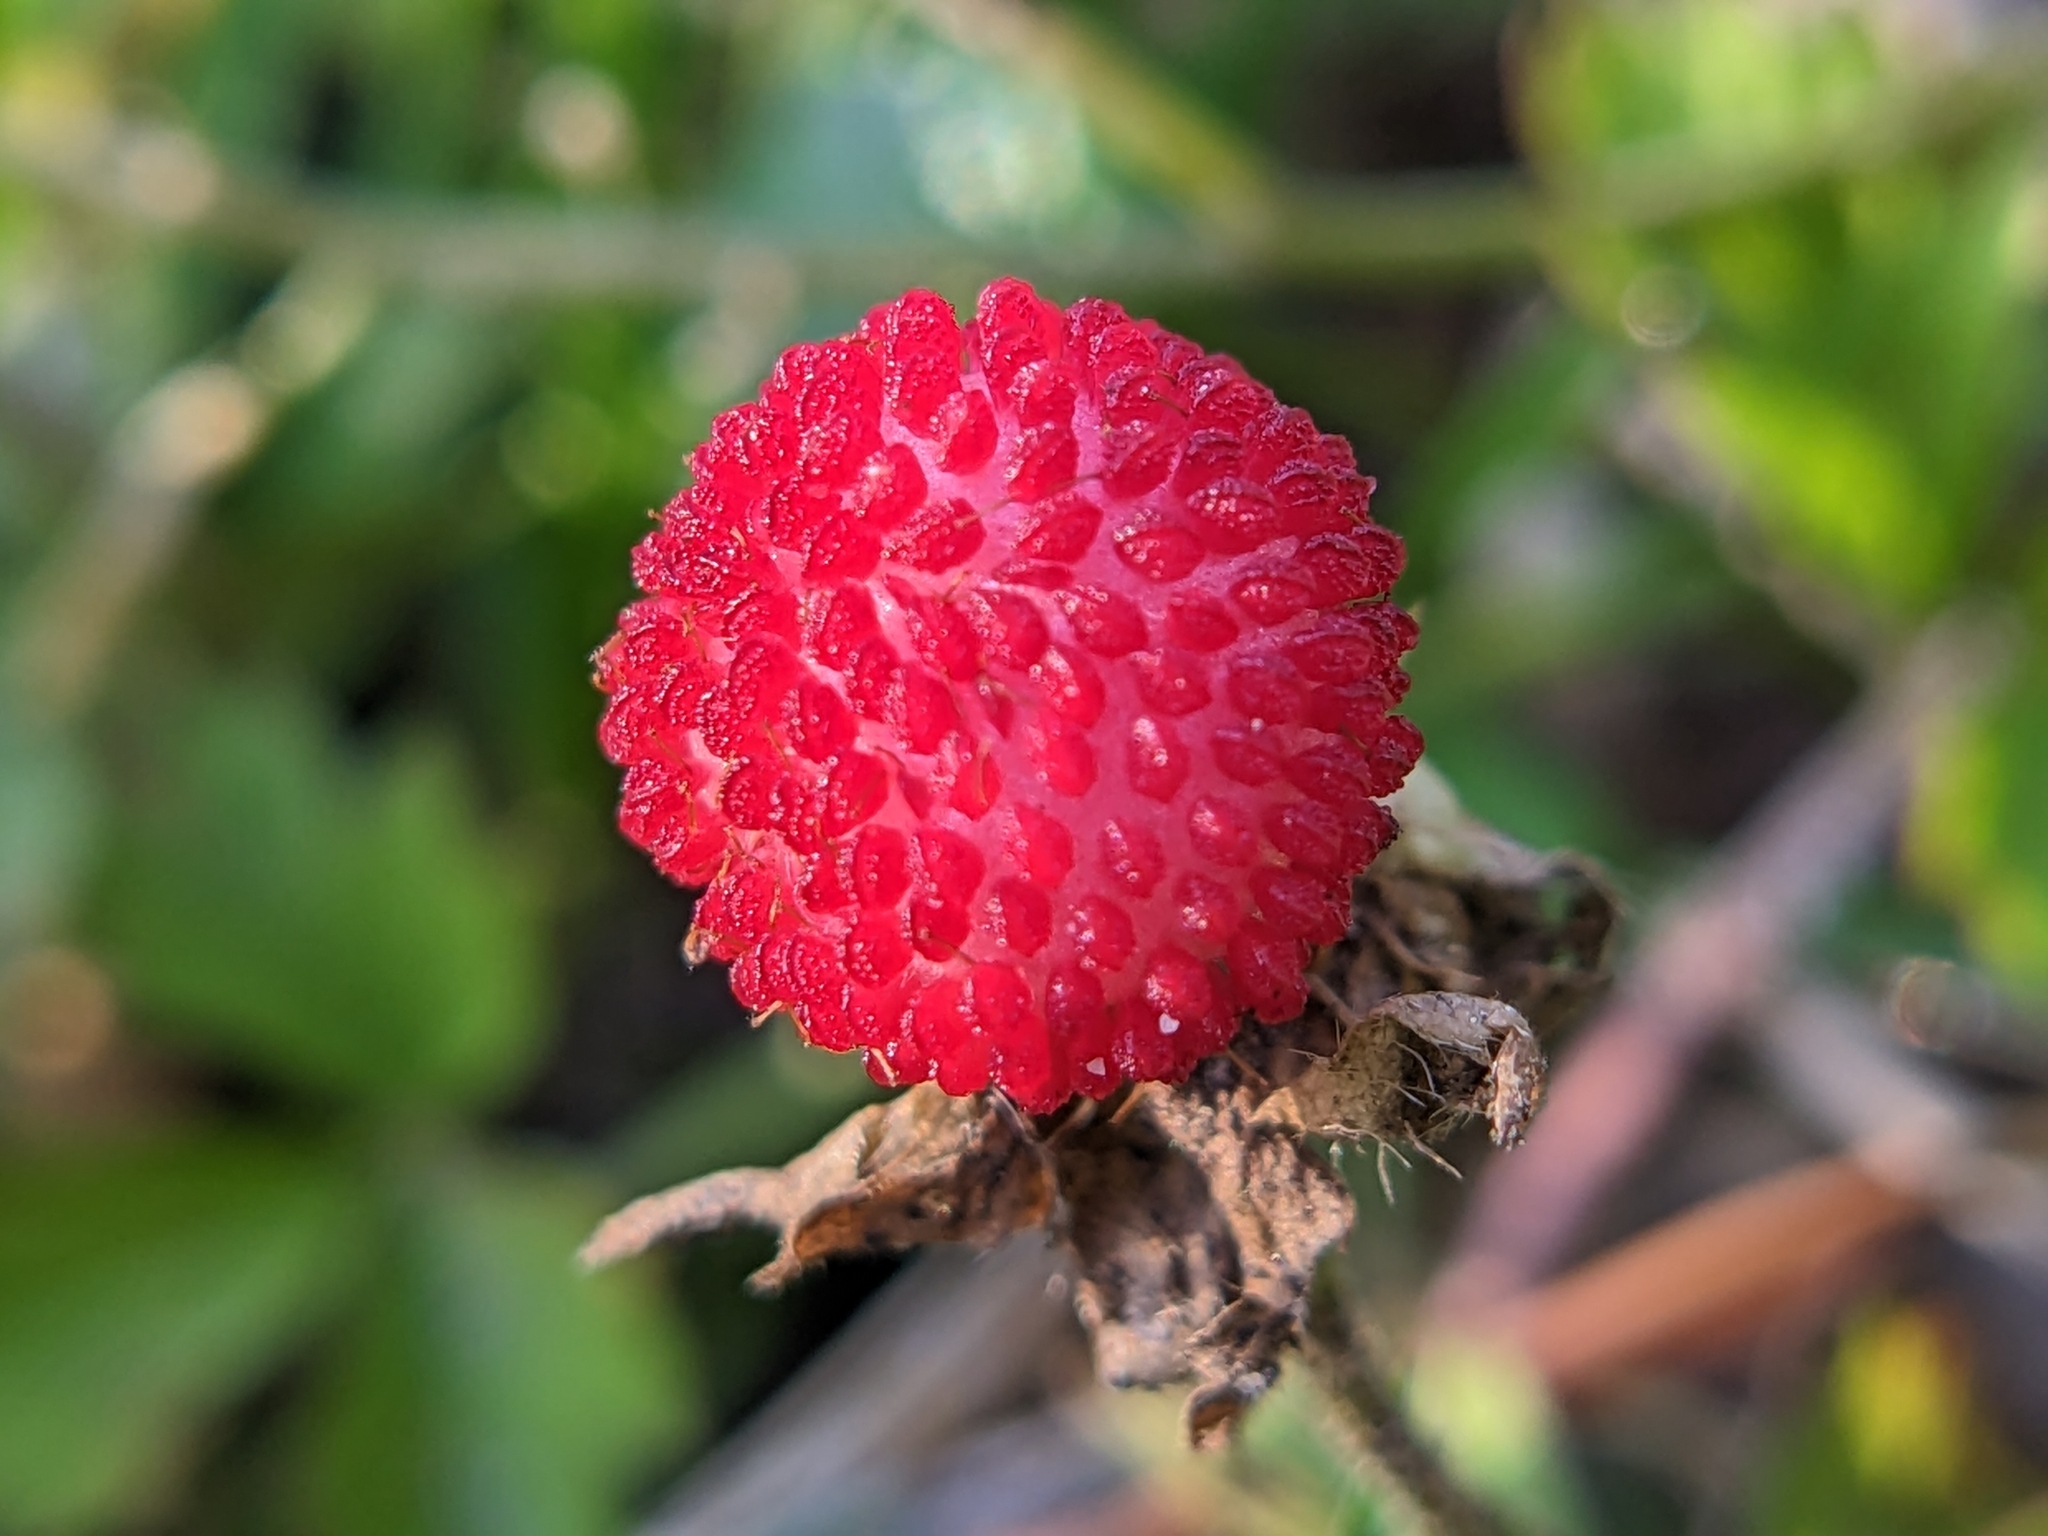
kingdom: Plantae
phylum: Tracheophyta
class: Magnoliopsida
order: Rosales
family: Rosaceae
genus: Potentilla
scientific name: Potentilla indica
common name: Yellow-flowered strawberry
